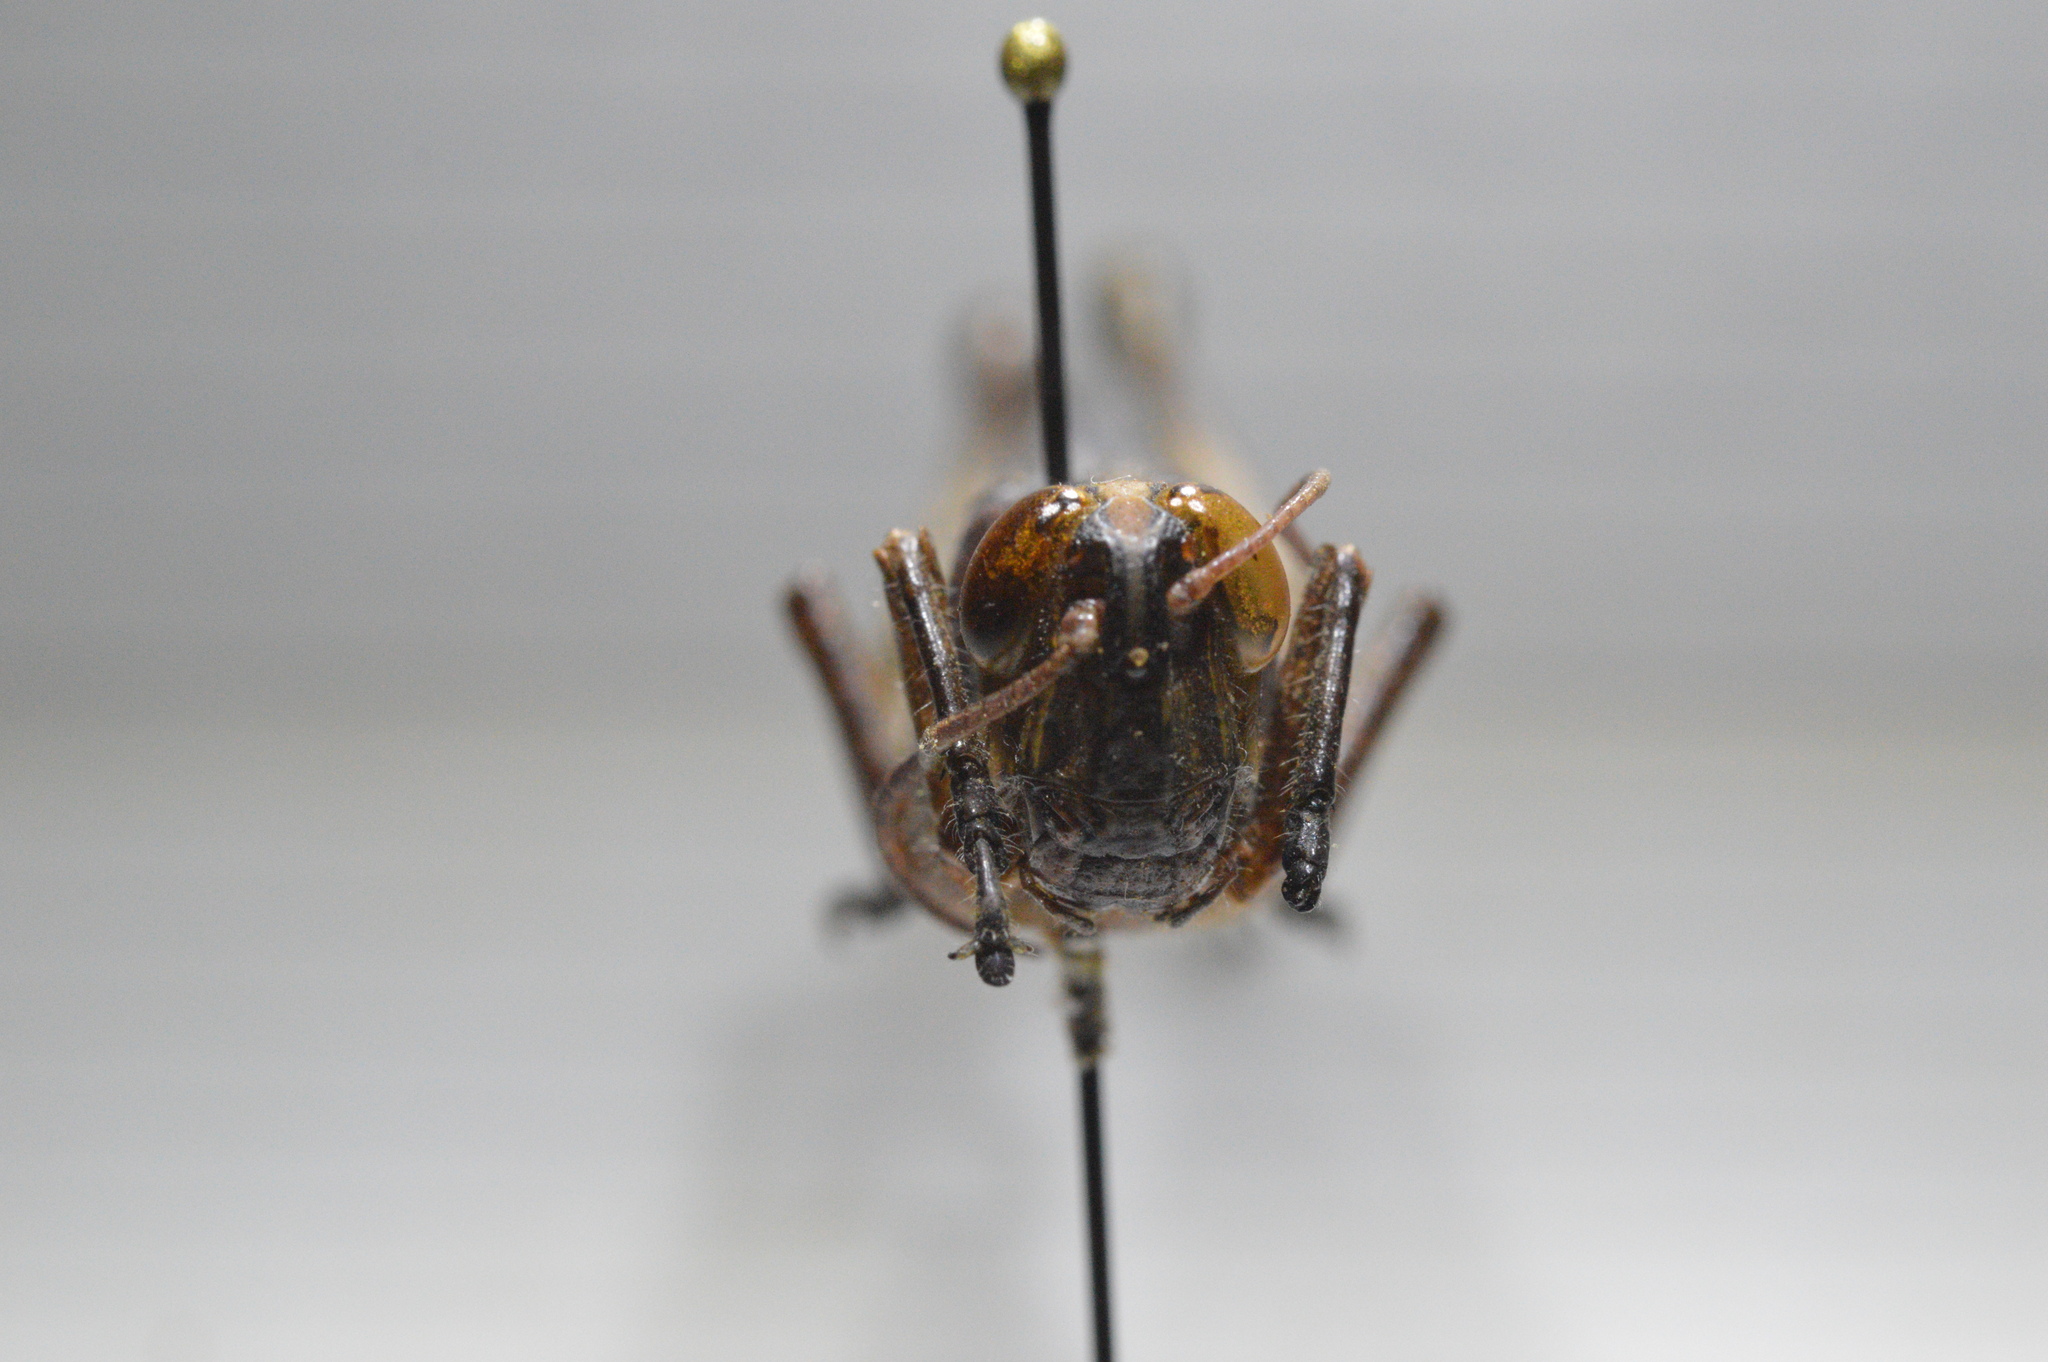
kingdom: Animalia
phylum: Arthropoda
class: Insecta
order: Orthoptera
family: Acrididae
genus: Schistocerca
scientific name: Schistocerca nitens
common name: Vagrant grasshopper
